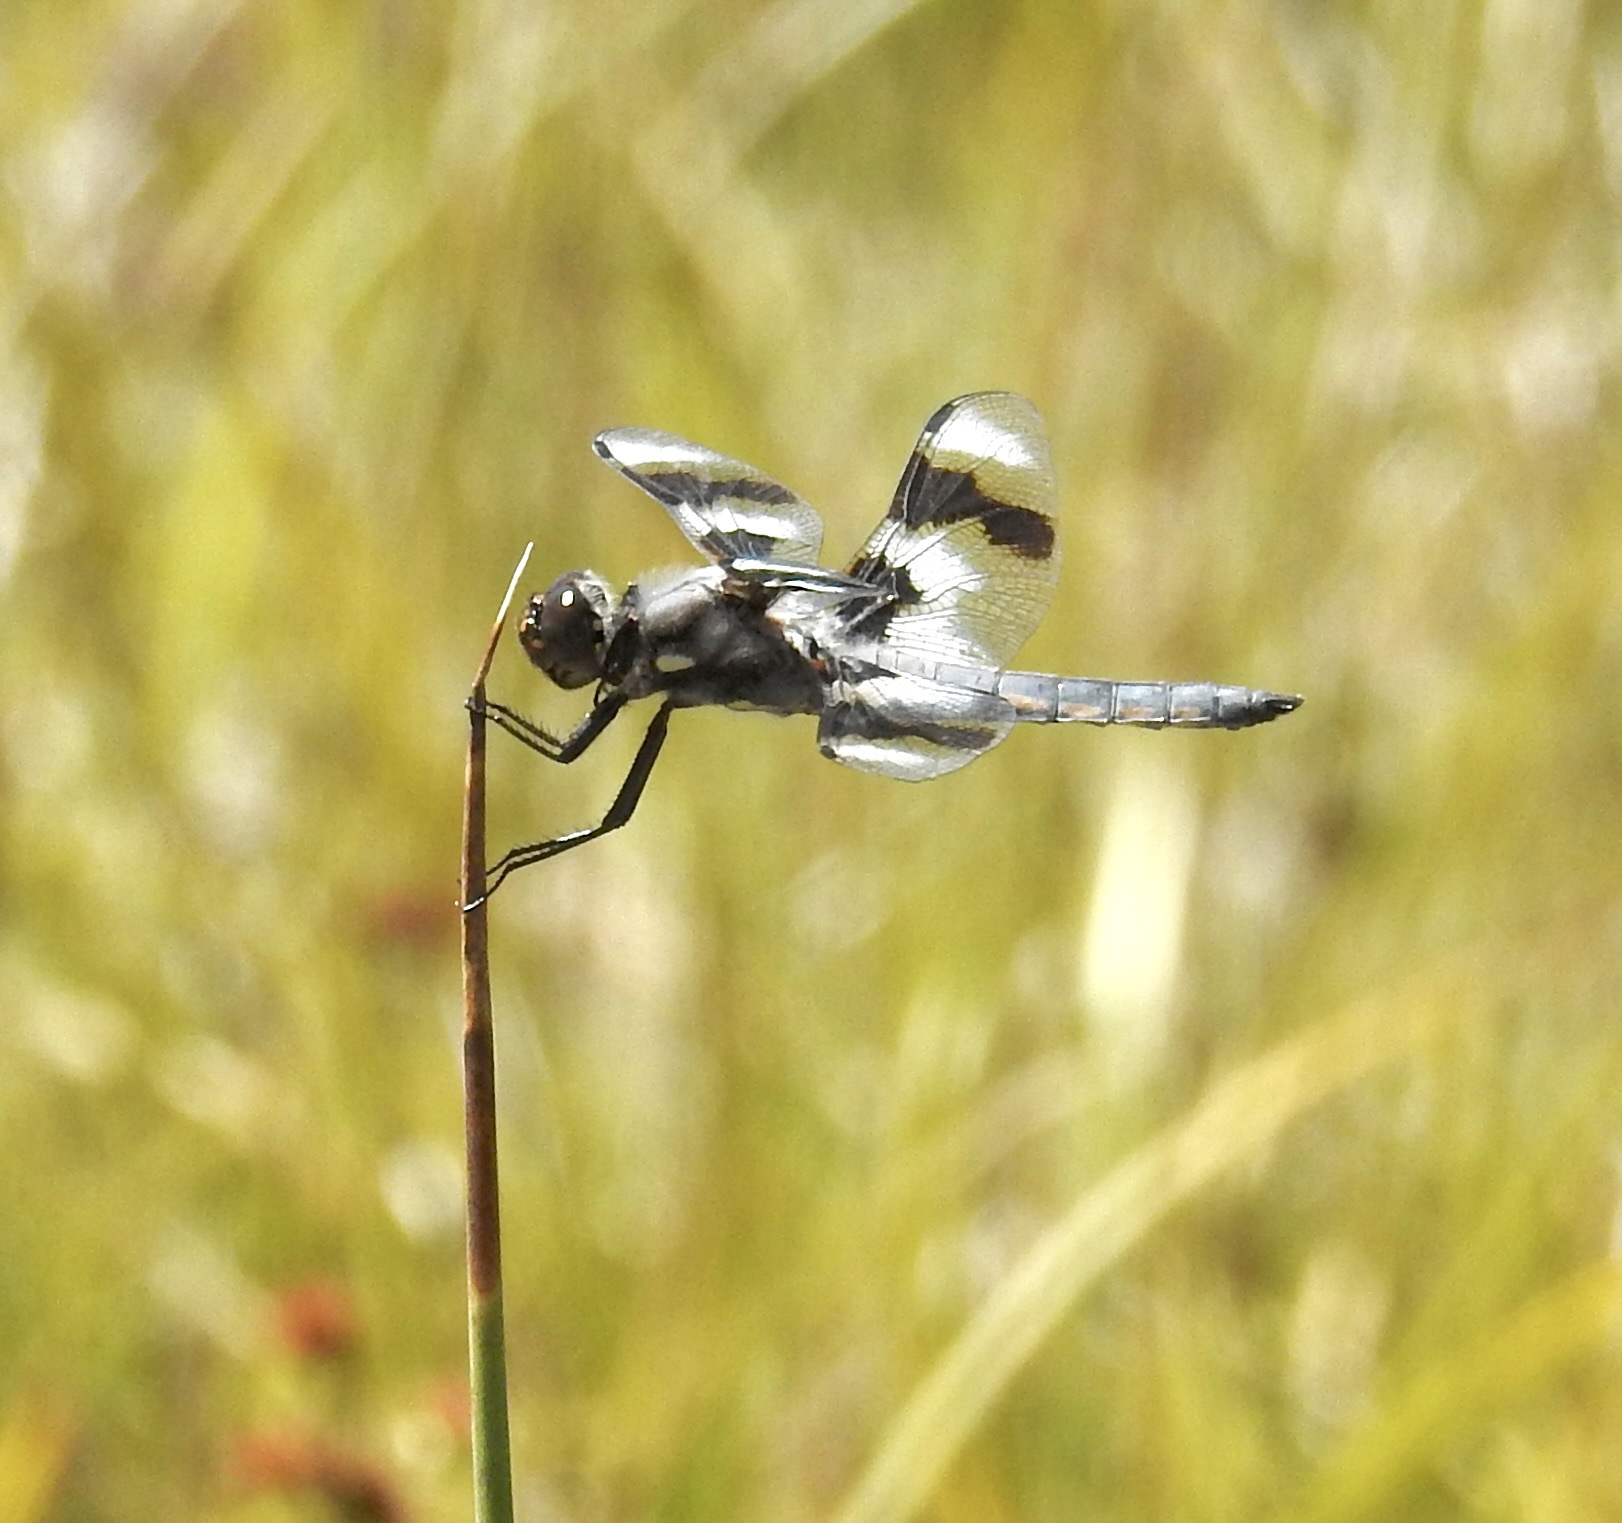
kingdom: Animalia
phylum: Arthropoda
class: Insecta
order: Odonata
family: Libellulidae
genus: Libellula
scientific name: Libellula forensis
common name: Eight-spotted skimmer
